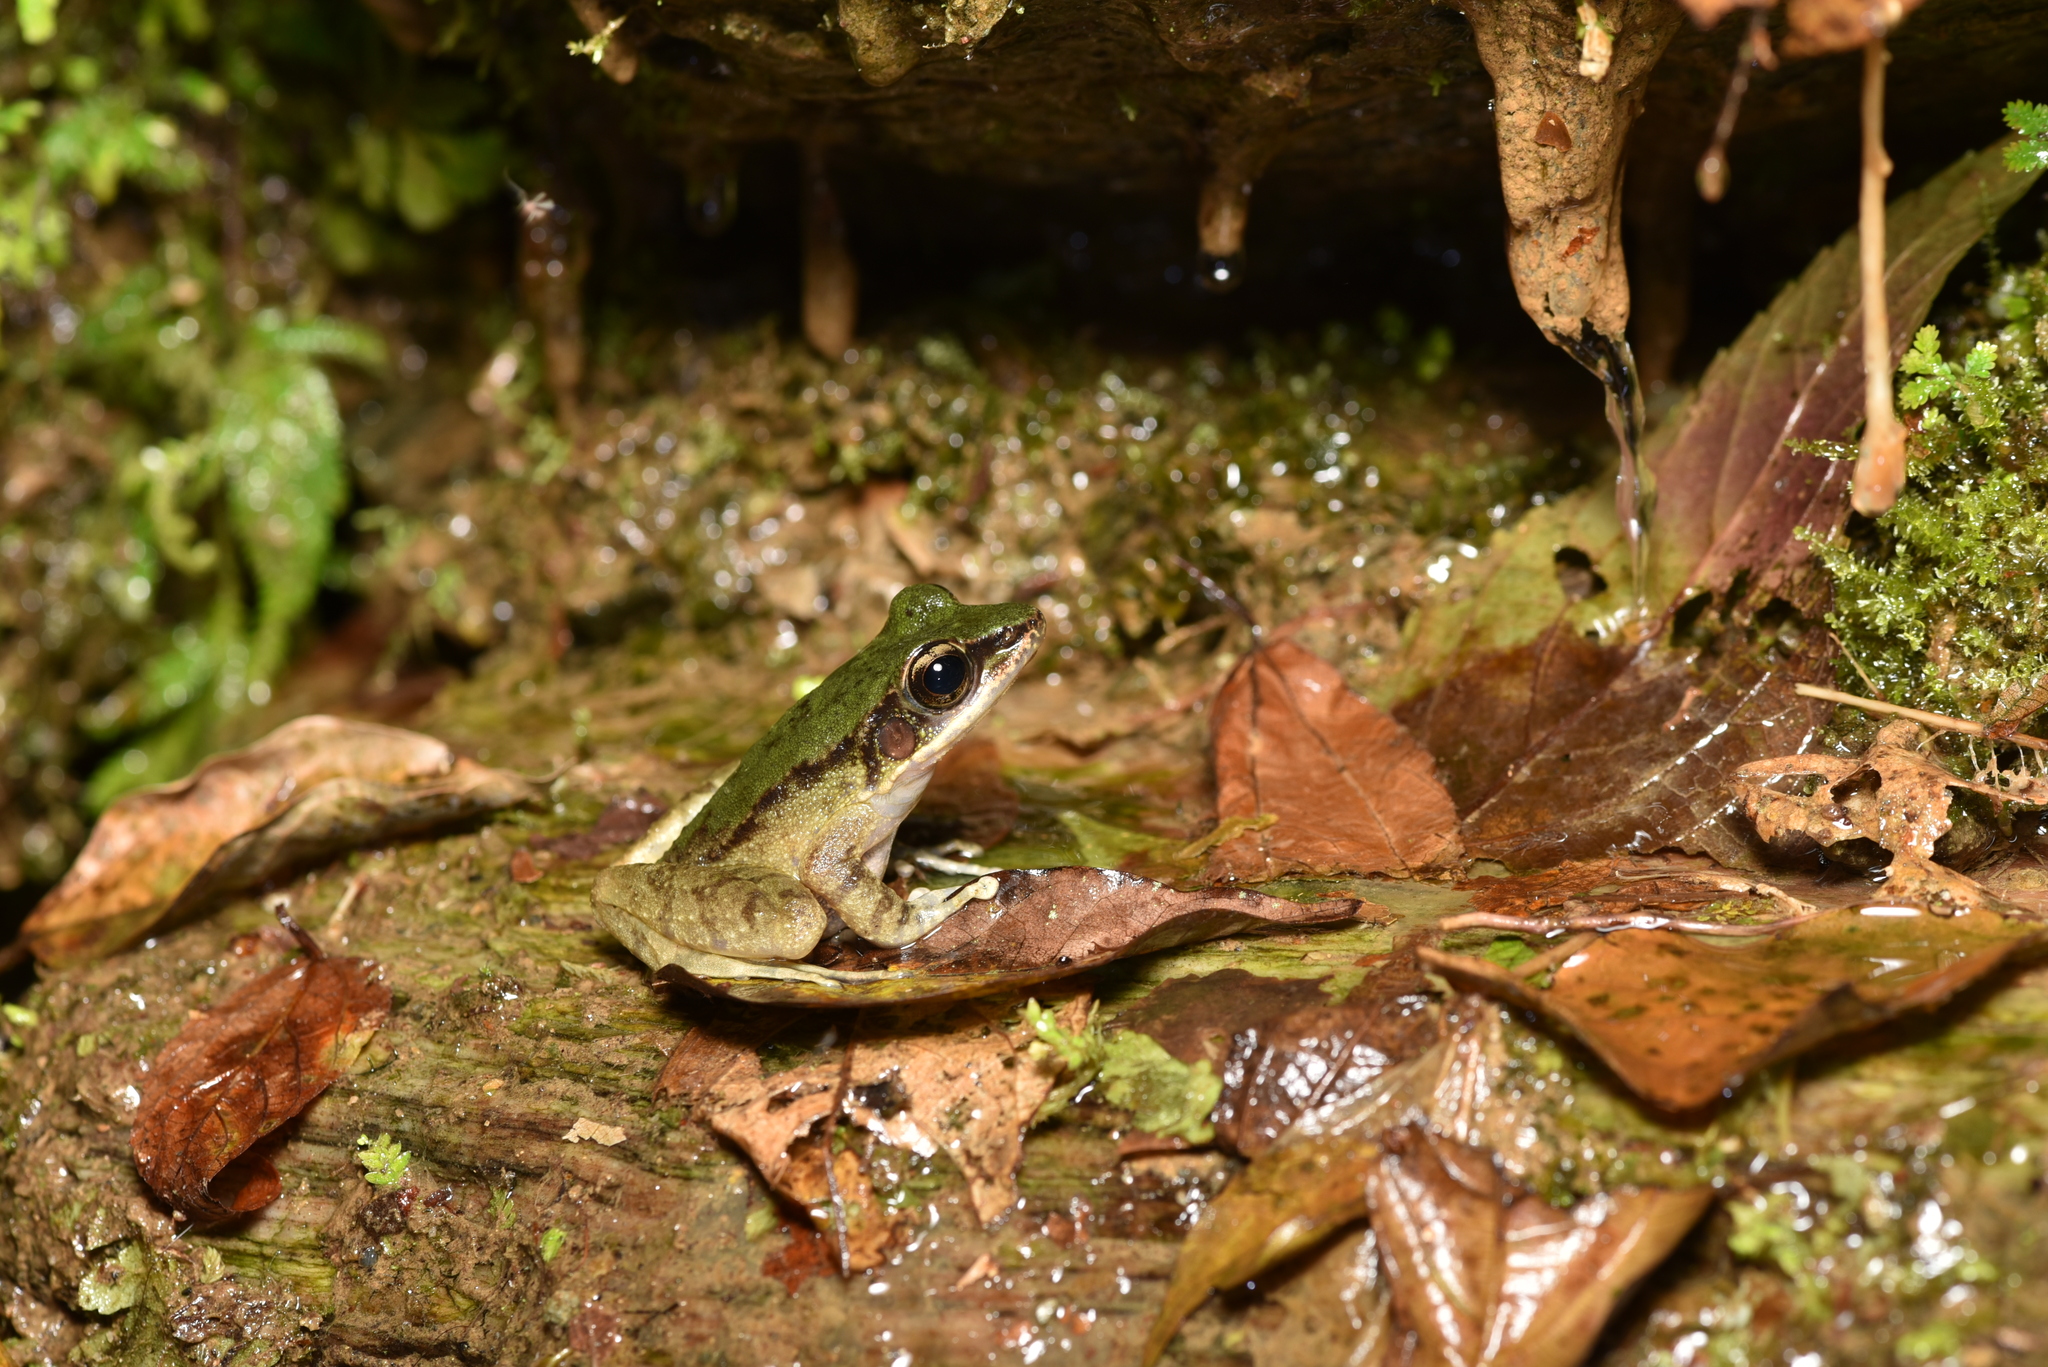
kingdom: Animalia
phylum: Chordata
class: Amphibia
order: Anura
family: Ranidae
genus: Odorrana
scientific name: Odorrana swinhoana
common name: Bangkimtsing frog
